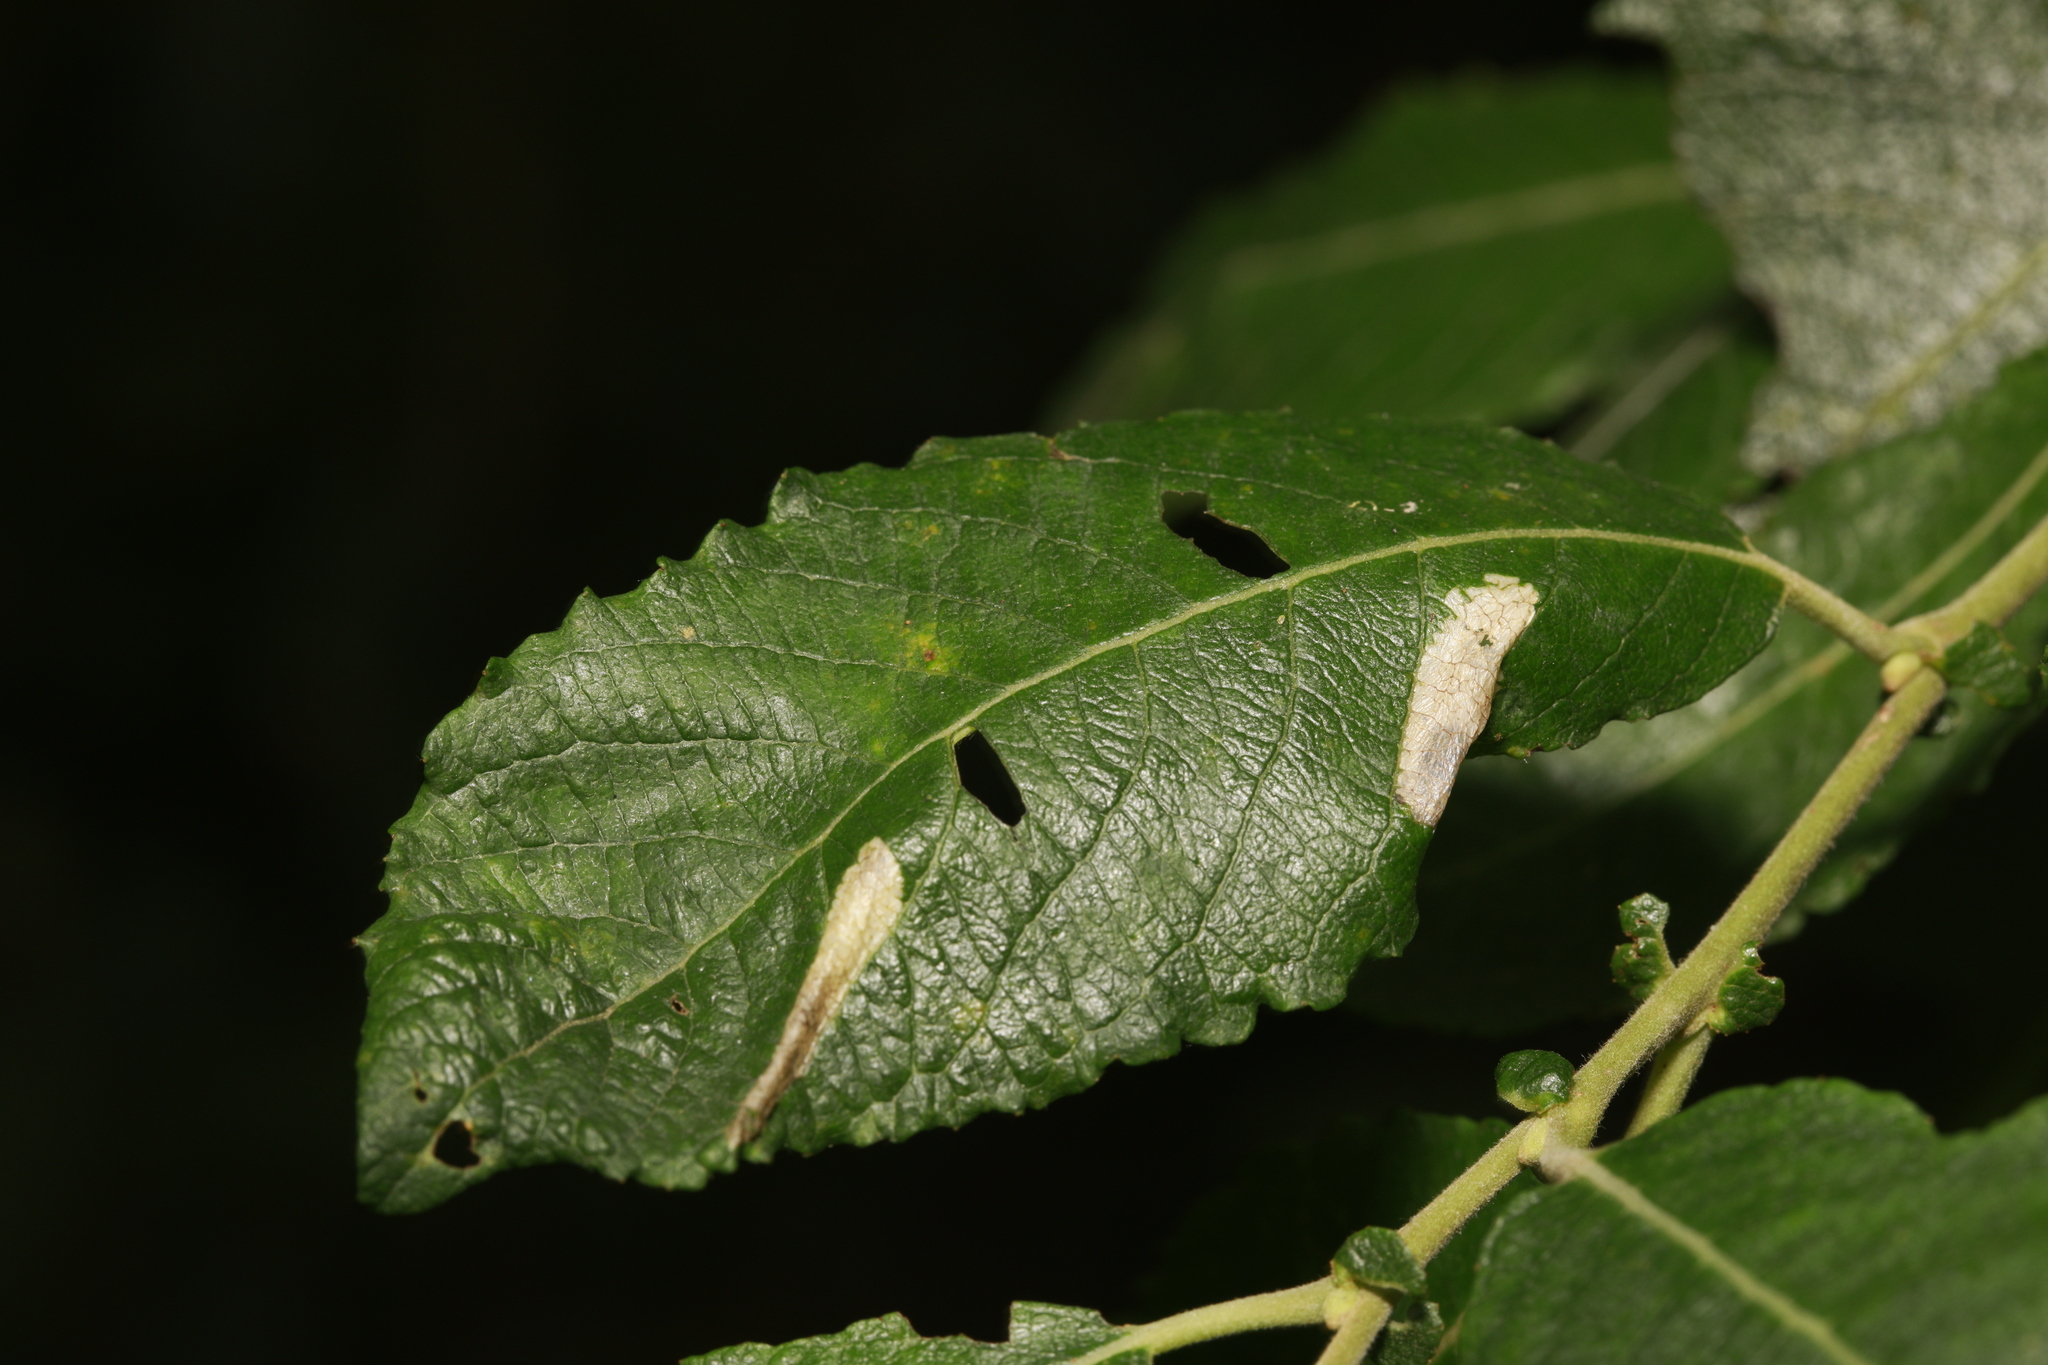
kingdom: Animalia
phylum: Arthropoda
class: Insecta
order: Lepidoptera
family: Gracillariidae
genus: Phyllonorycter
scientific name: Phyllonorycter salictella
